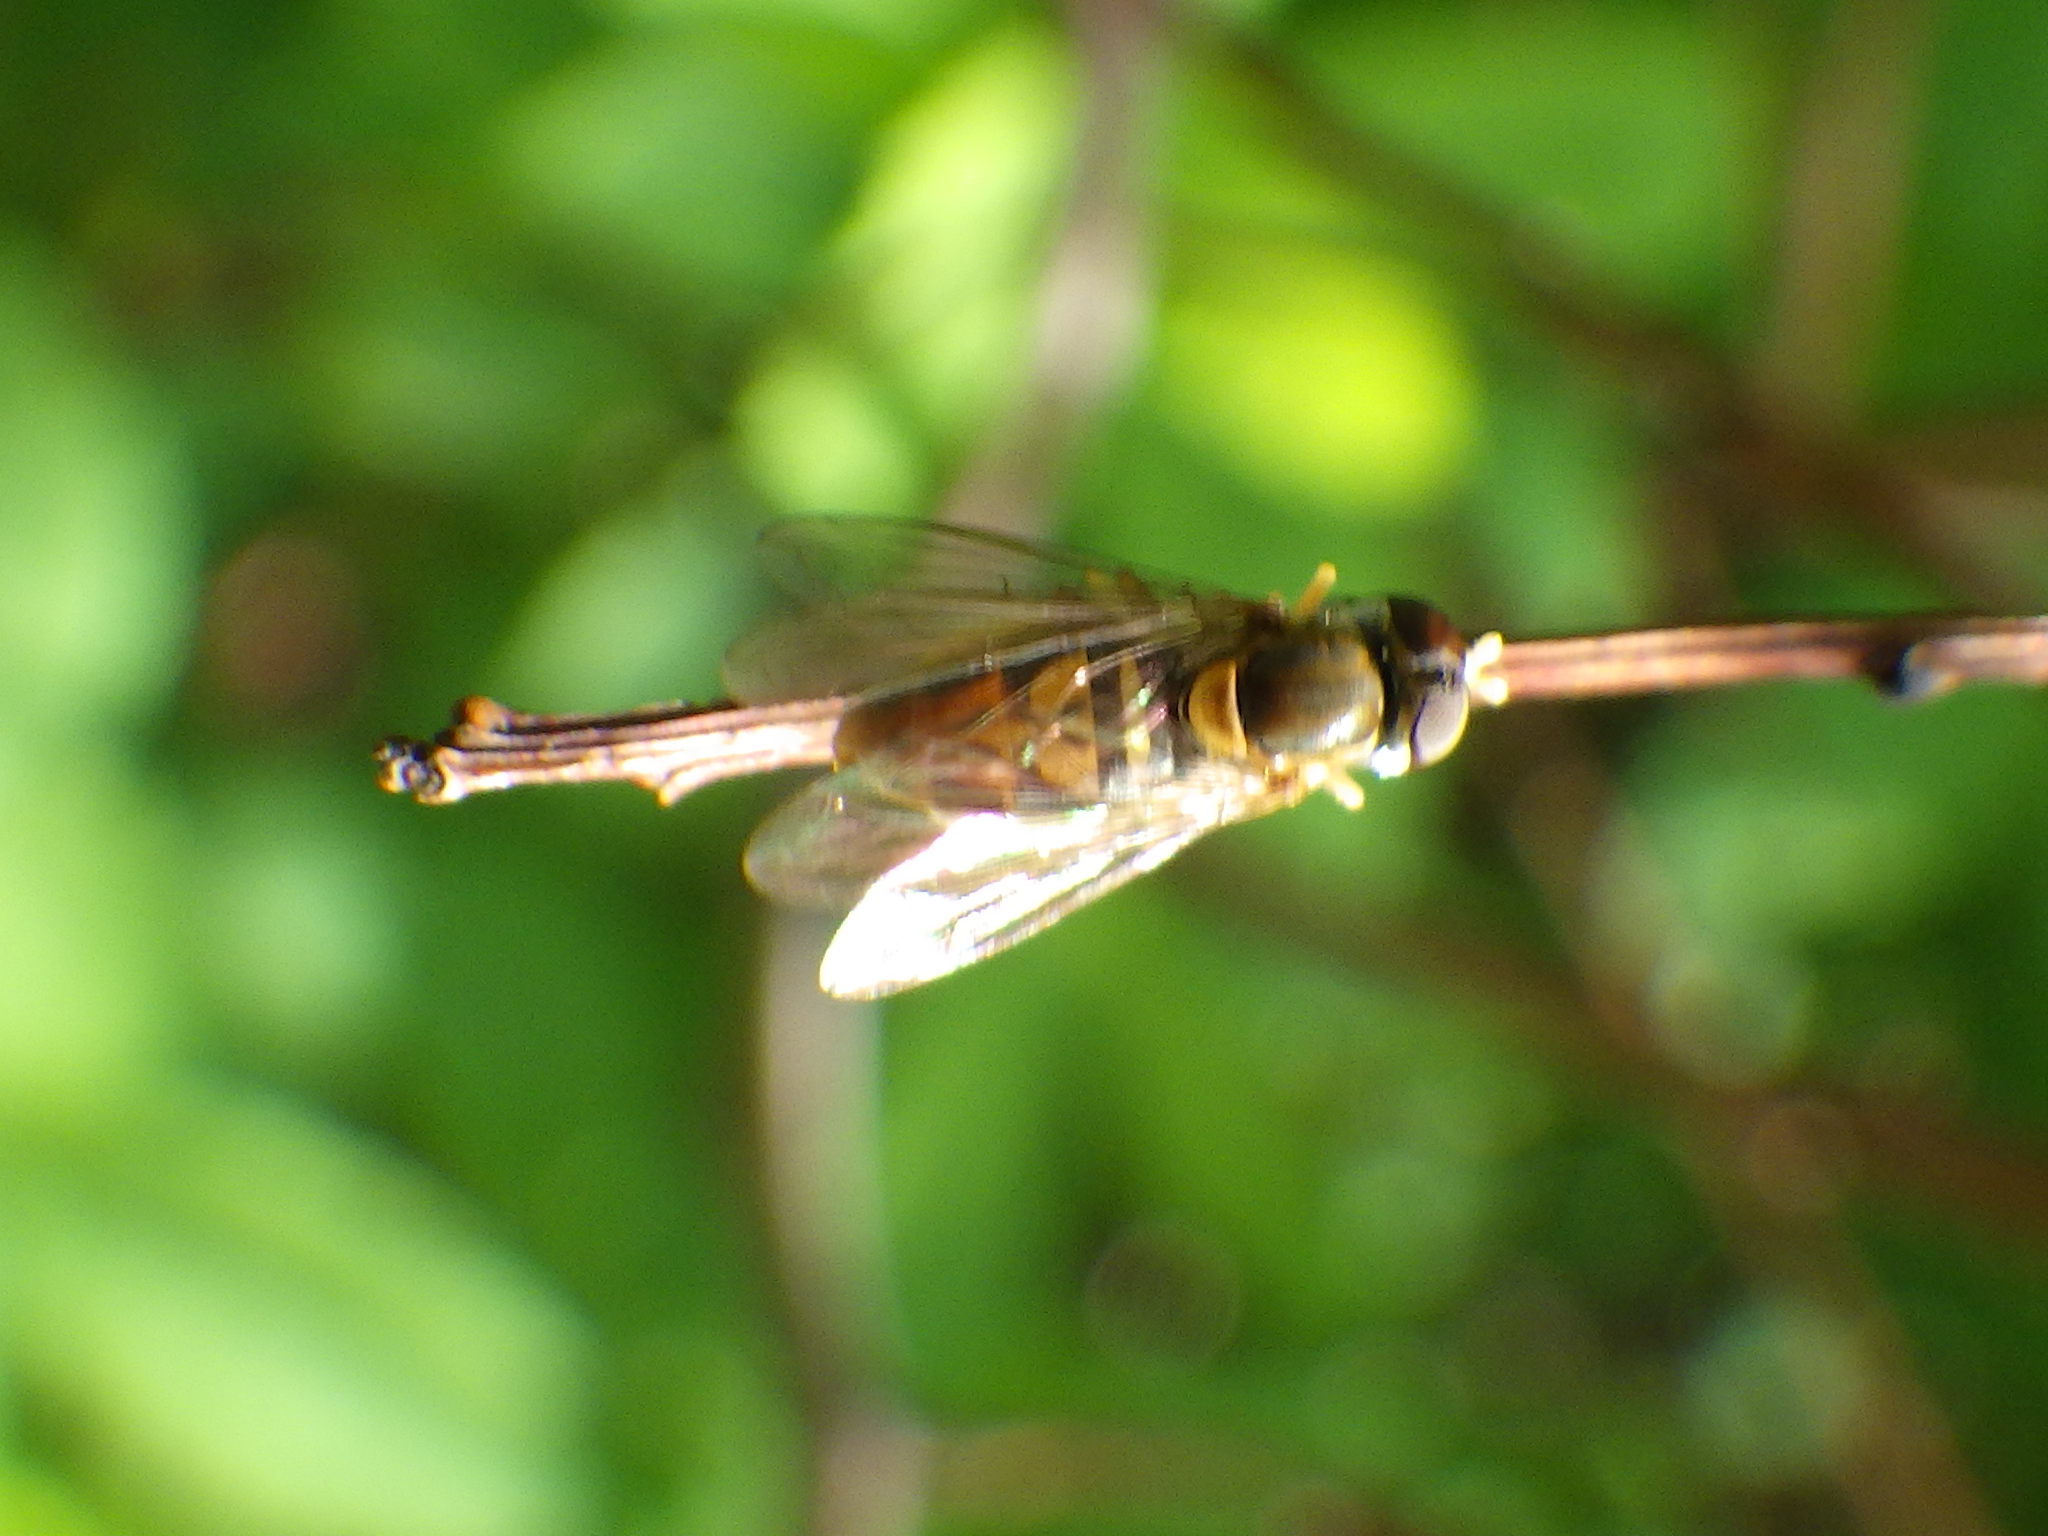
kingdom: Animalia
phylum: Arthropoda
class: Insecta
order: Diptera
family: Syrphidae
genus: Toxomerus
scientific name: Toxomerus marginatus
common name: Syrphid fly
